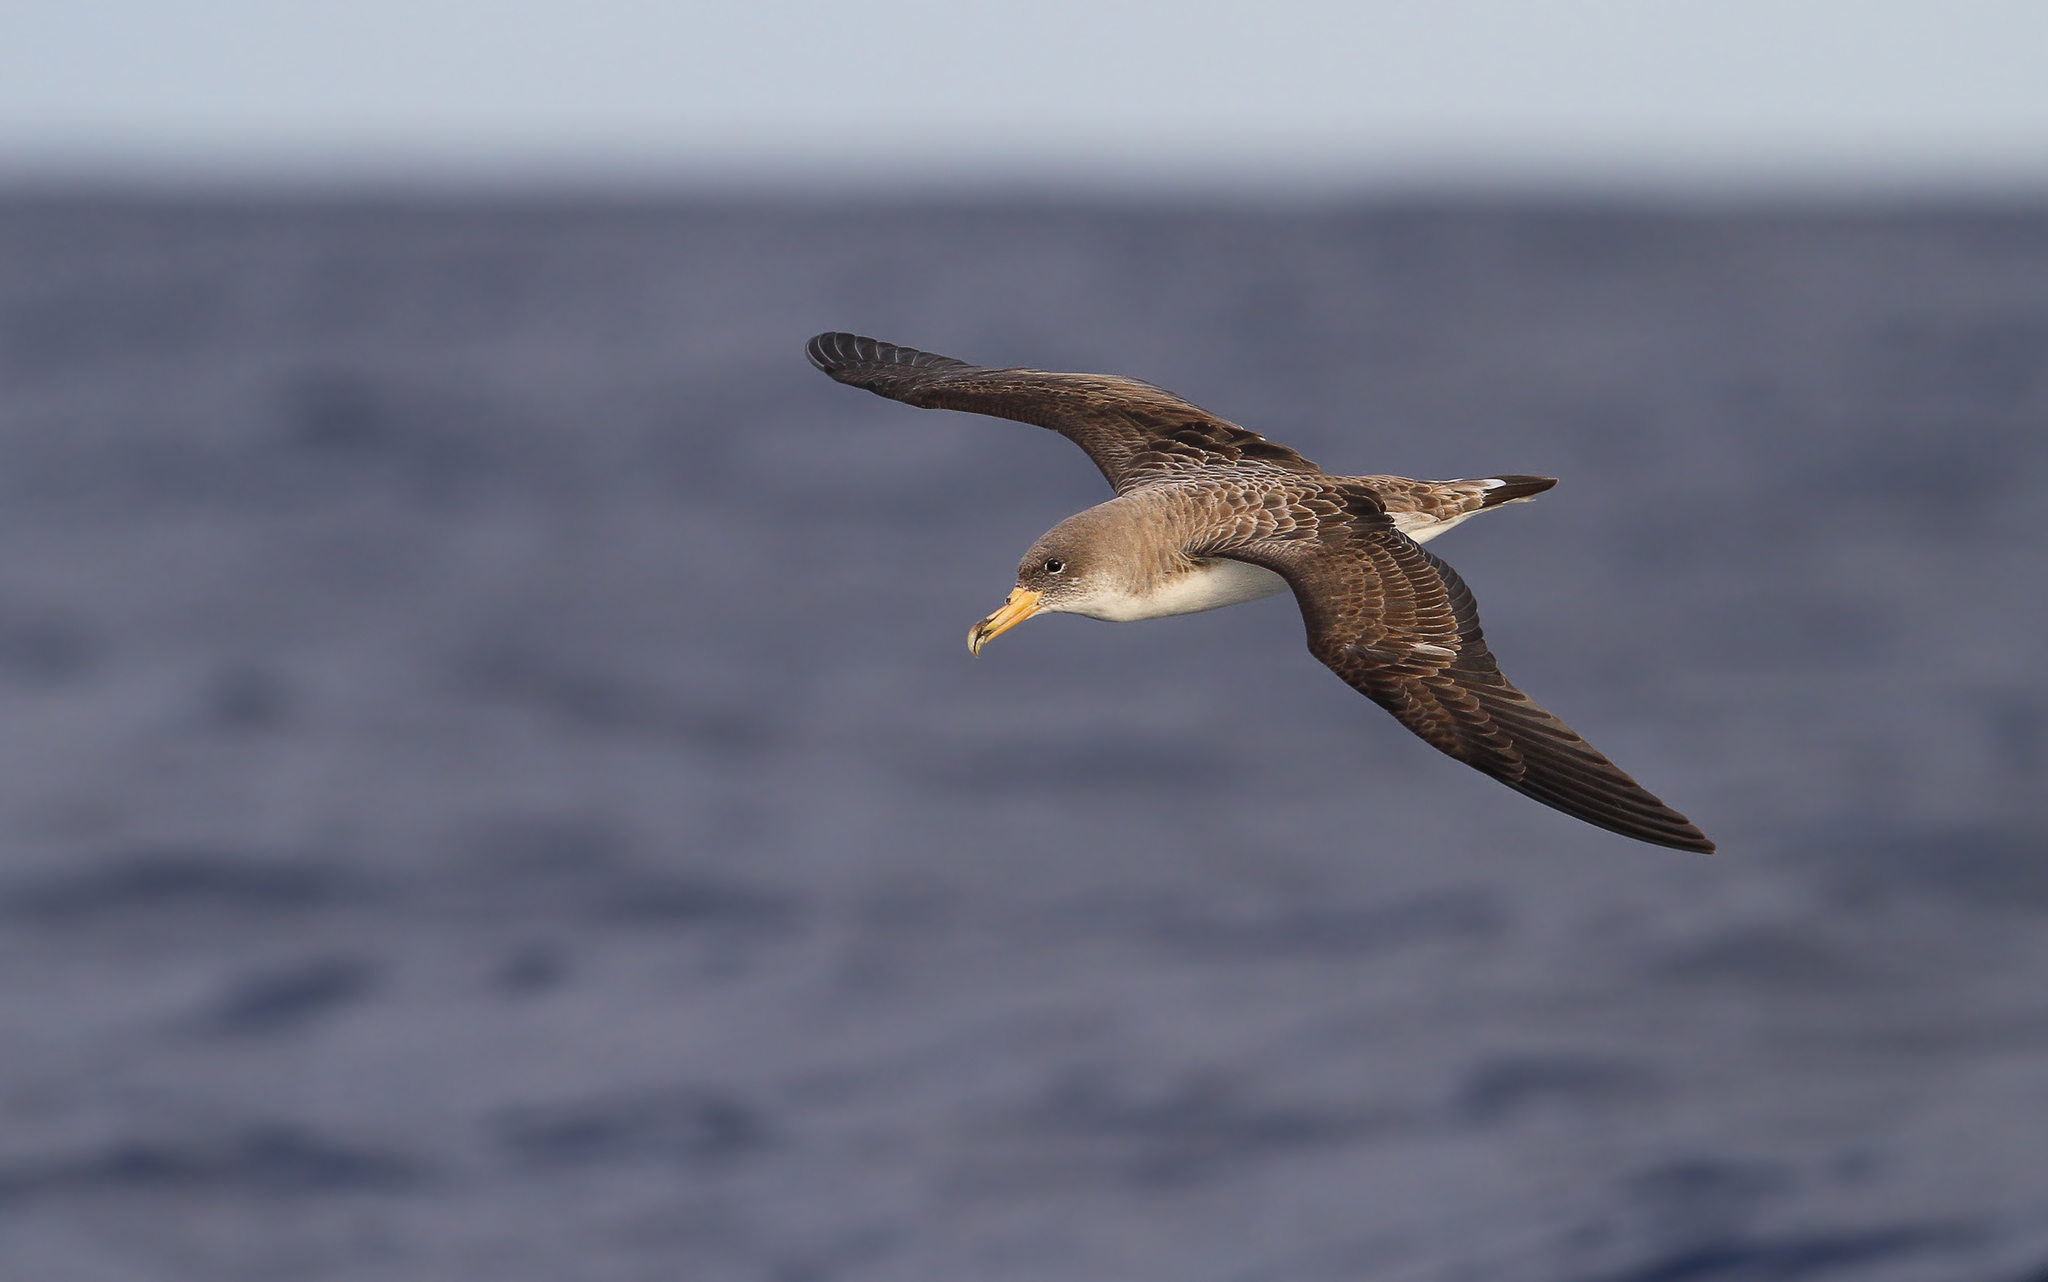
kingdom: Animalia
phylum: Chordata
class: Aves
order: Procellariiformes
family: Procellariidae
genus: Calonectris
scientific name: Calonectris diomedea
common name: Cory's shearwater
